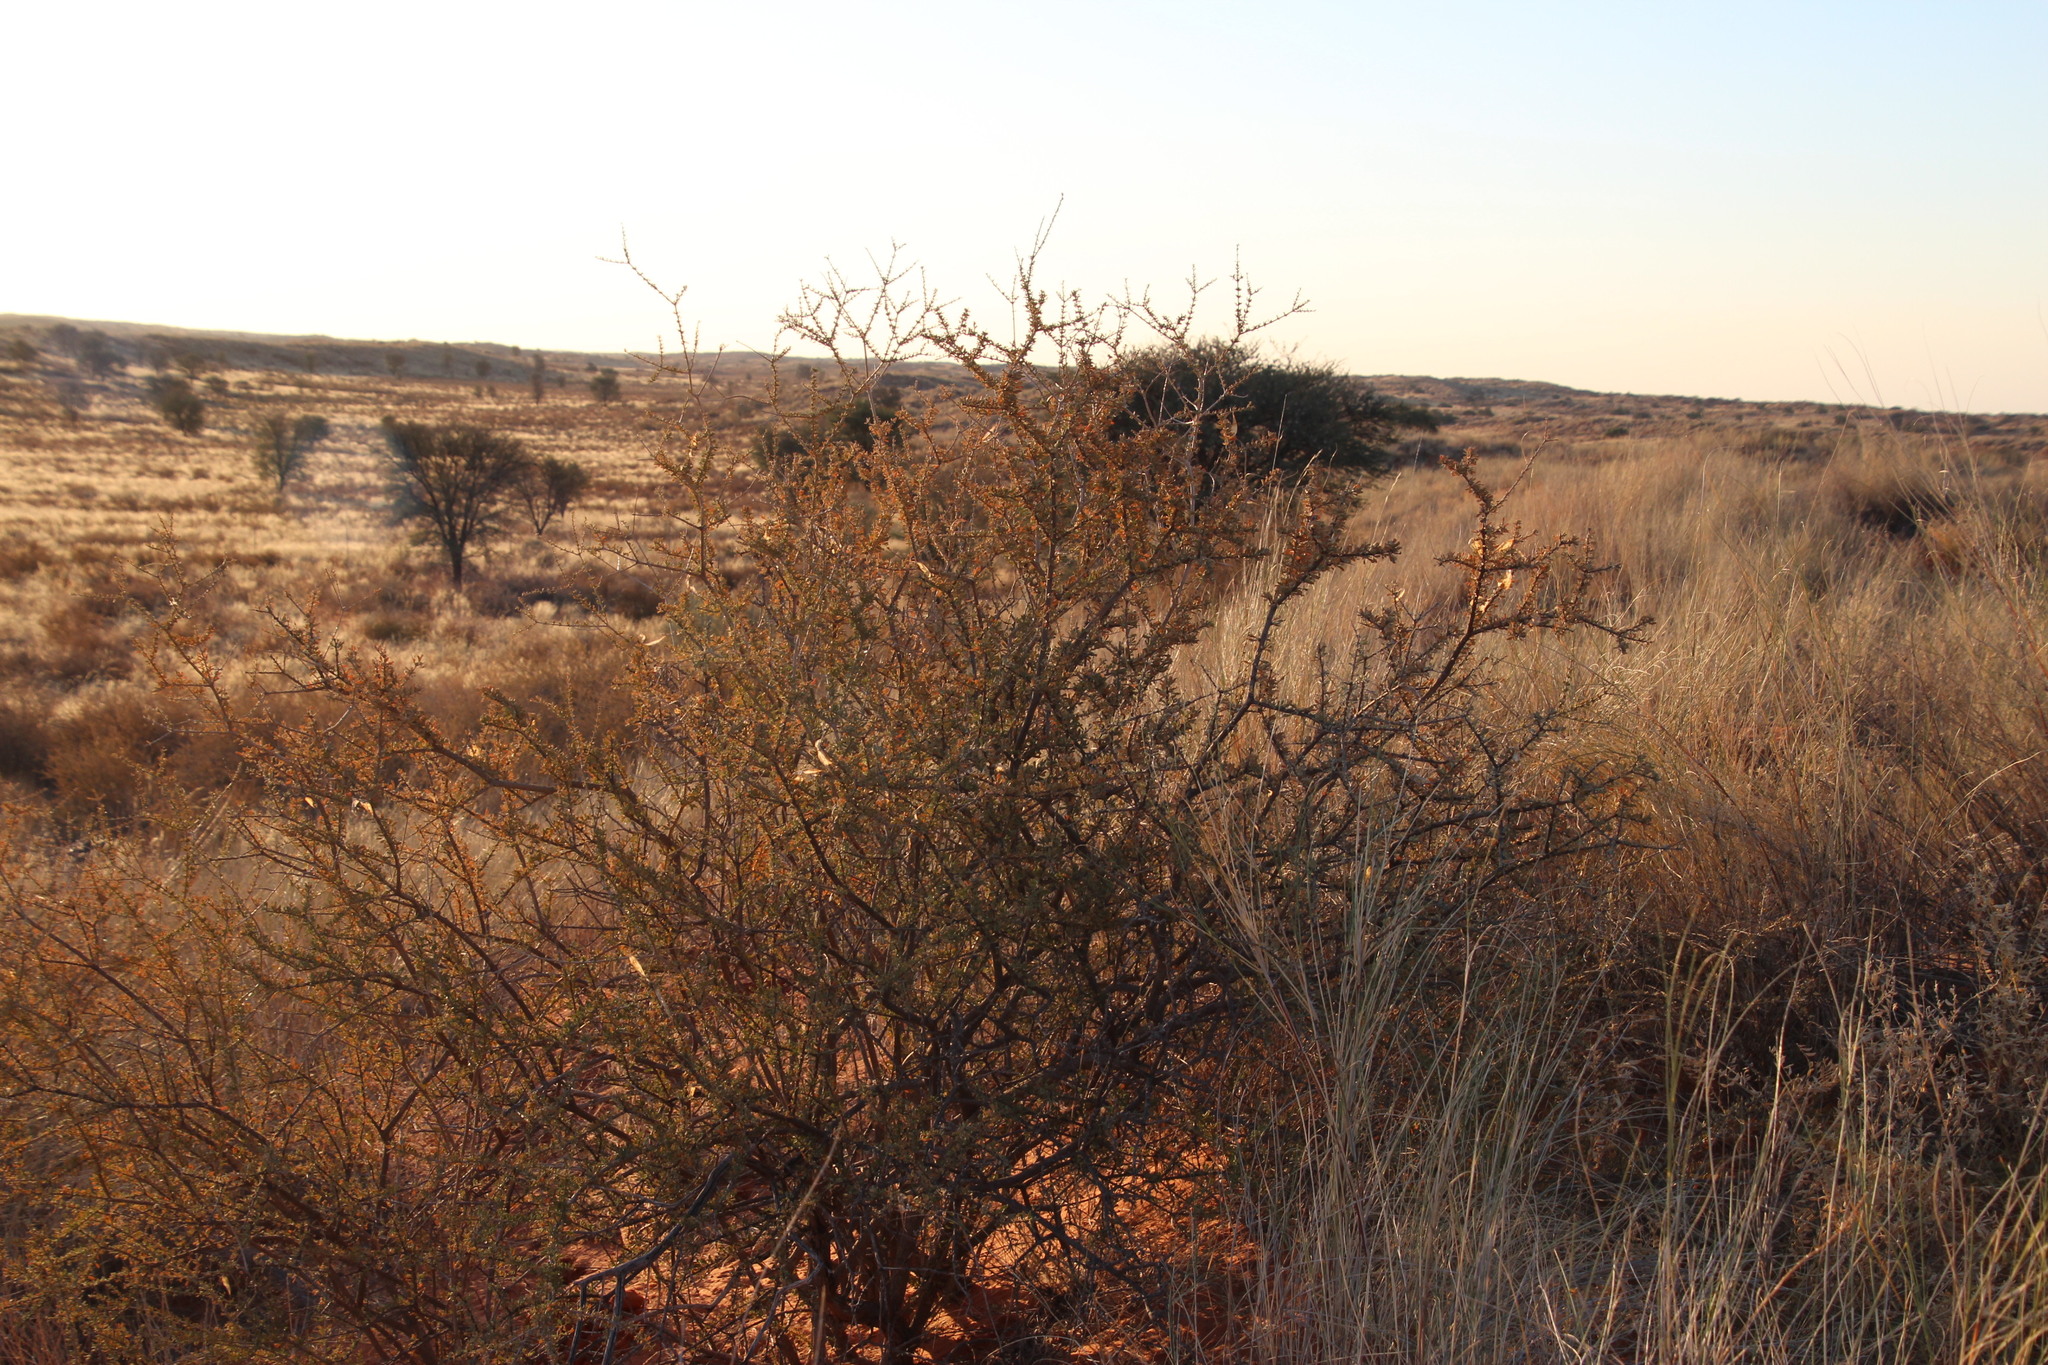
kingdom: Plantae
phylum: Tracheophyta
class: Magnoliopsida
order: Lamiales
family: Bignoniaceae
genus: Rhigozum
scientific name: Rhigozum trichotomum
